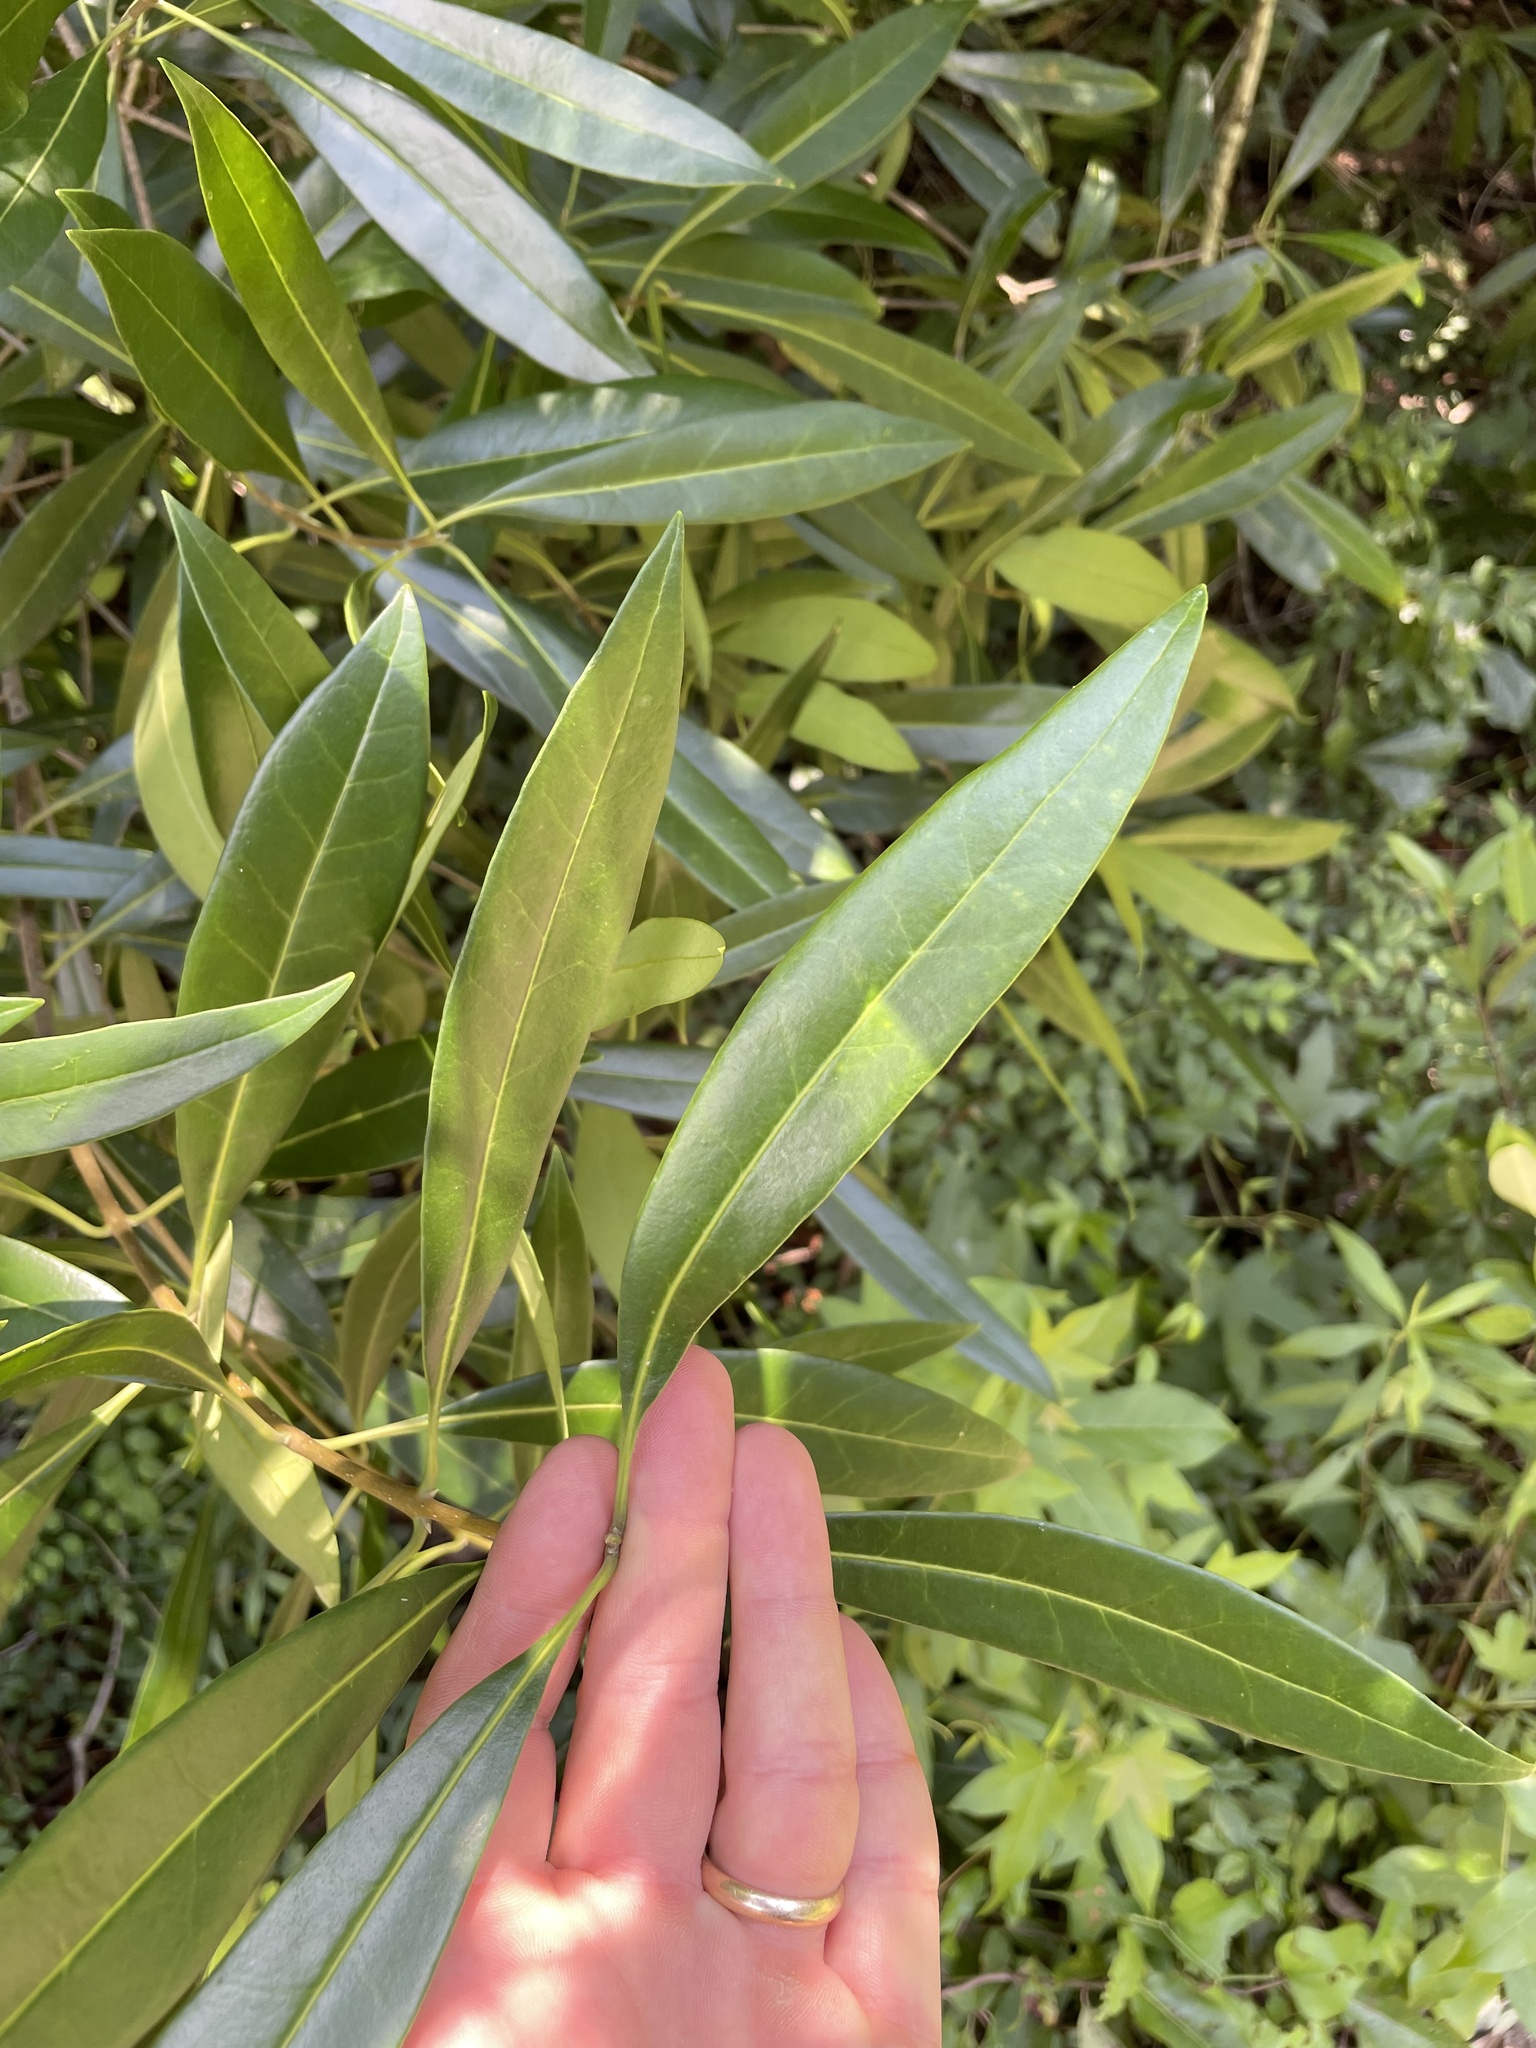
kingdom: Plantae
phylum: Tracheophyta
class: Magnoliopsida
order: Lamiales
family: Oleaceae
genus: Cartrema
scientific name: Cartrema americana
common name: Devilwood
